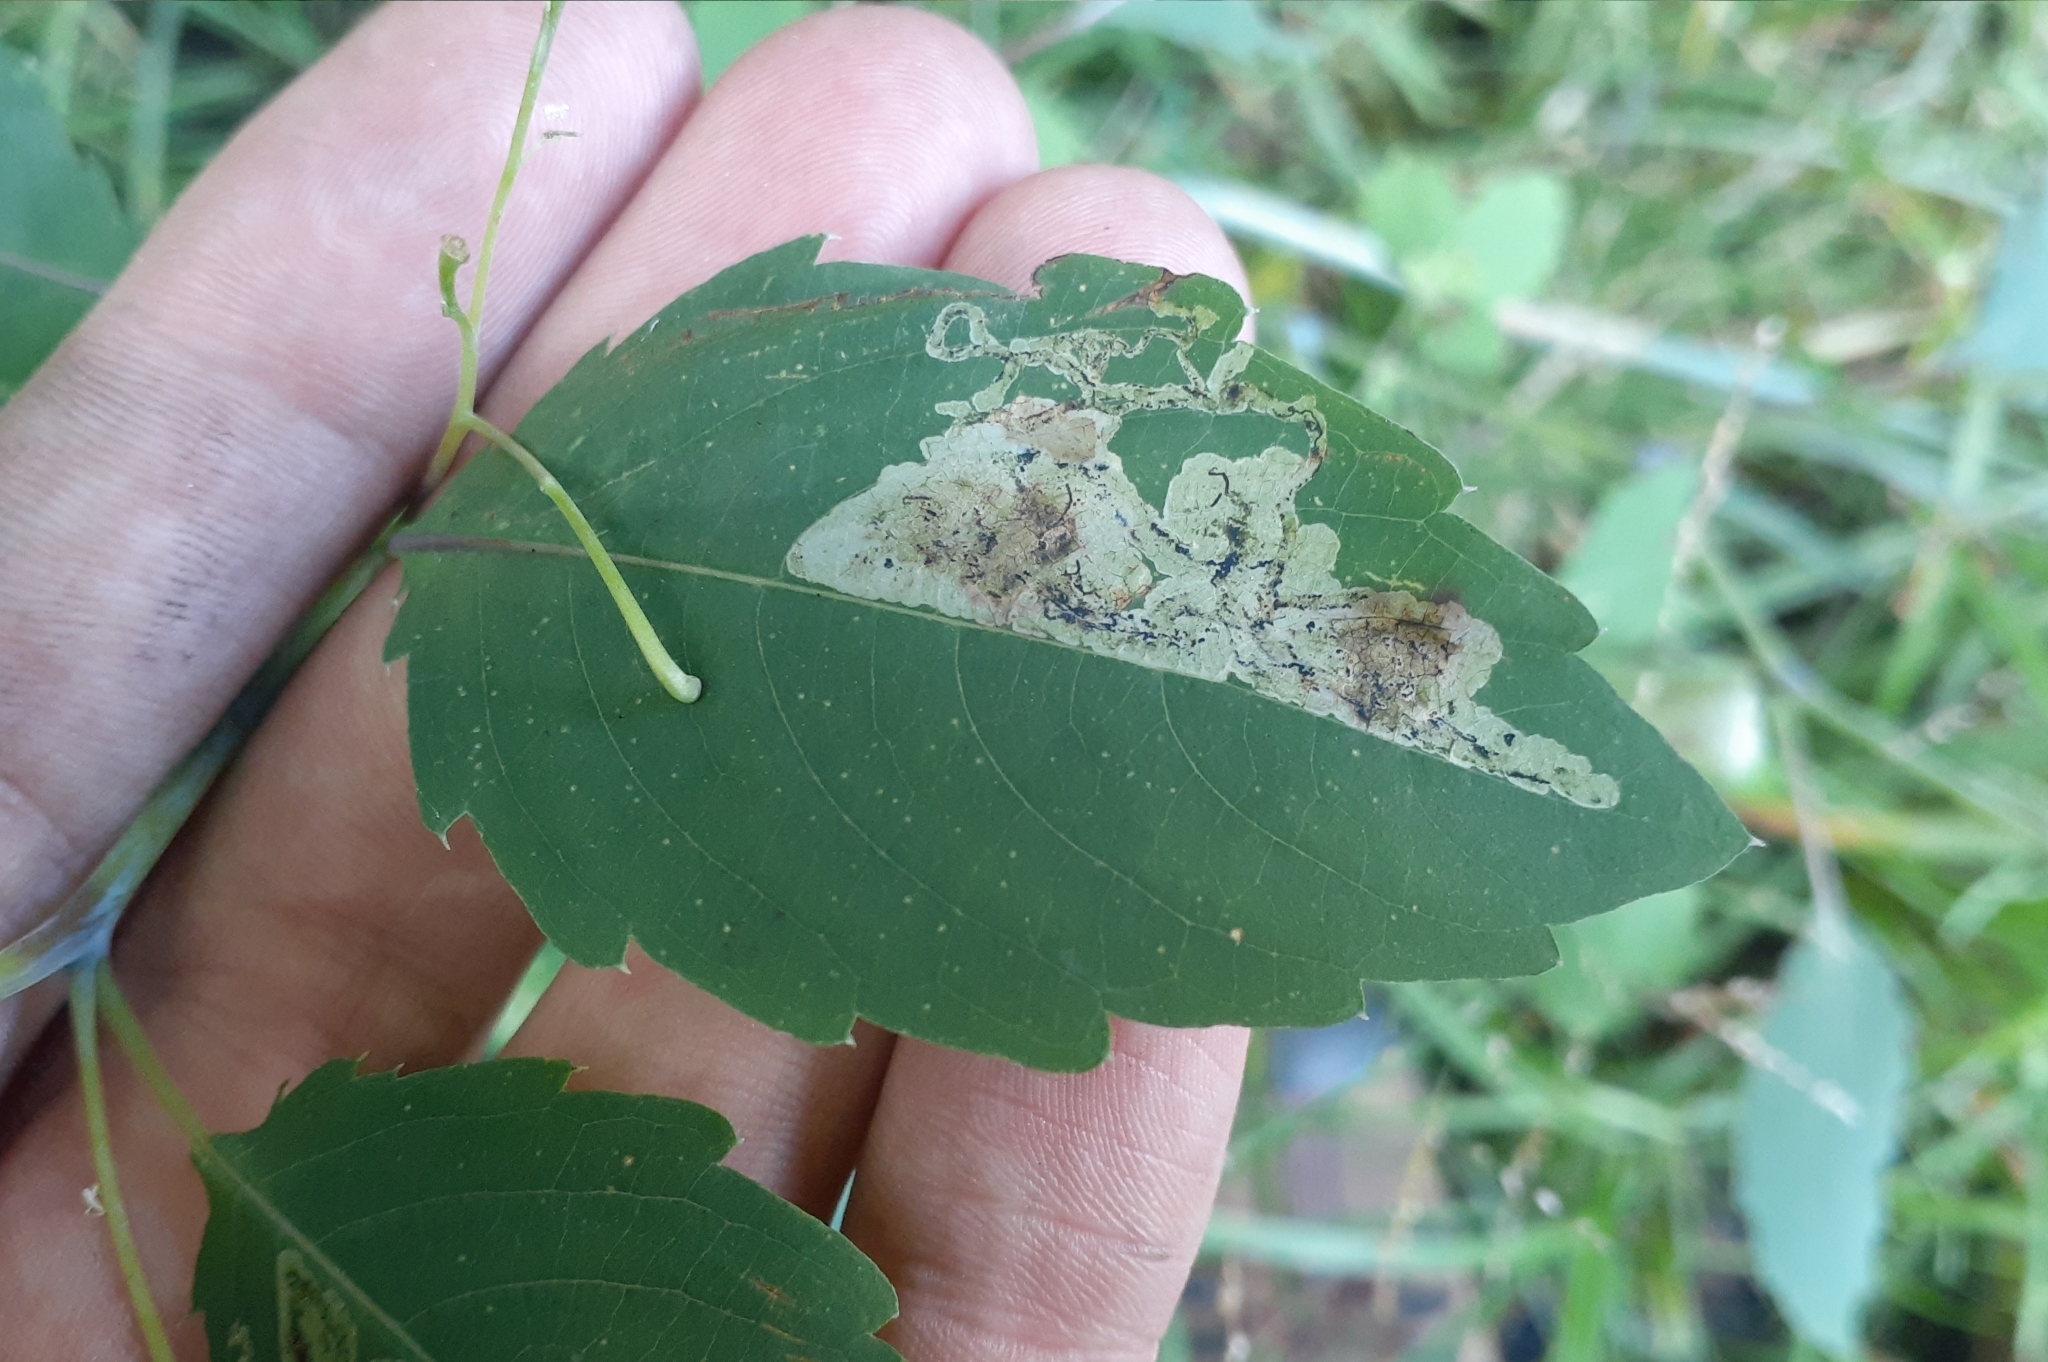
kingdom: Animalia
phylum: Arthropoda
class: Insecta
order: Diptera
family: Agromyzidae
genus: Phytoliriomyza
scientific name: Phytoliriomyza melampyga
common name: Jewelweed leaf-miner fly
